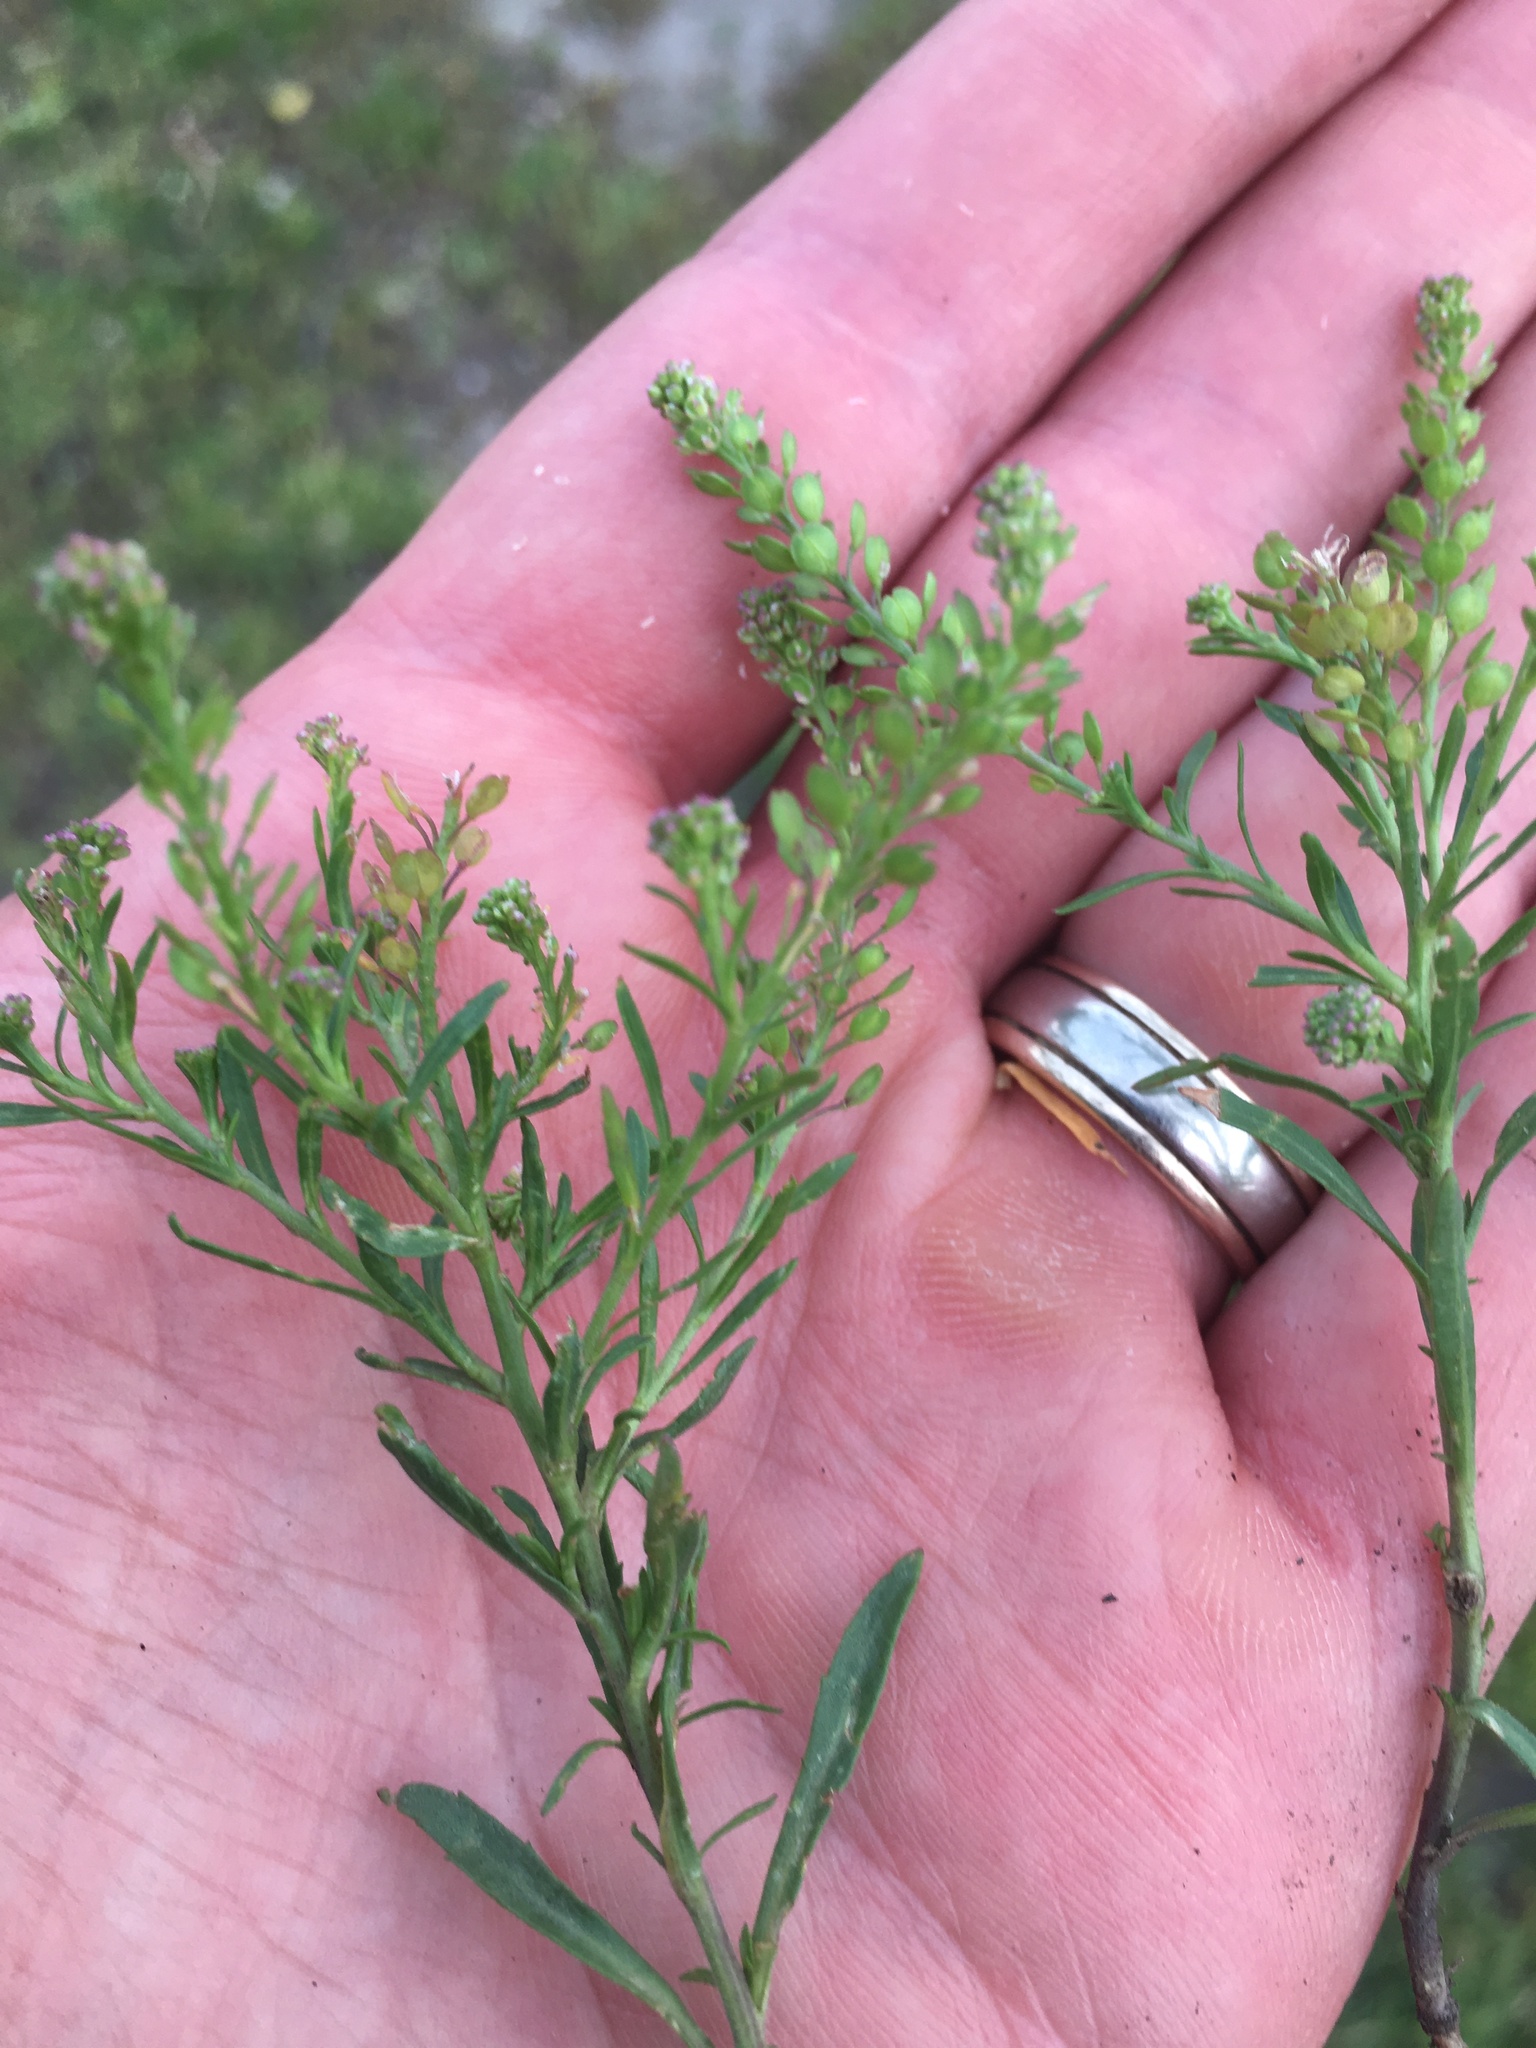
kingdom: Plantae
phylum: Tracheophyta
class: Magnoliopsida
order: Brassicales
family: Brassicaceae
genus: Lepidium
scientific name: Lepidium densiflorum
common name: Miner's pepperwort
